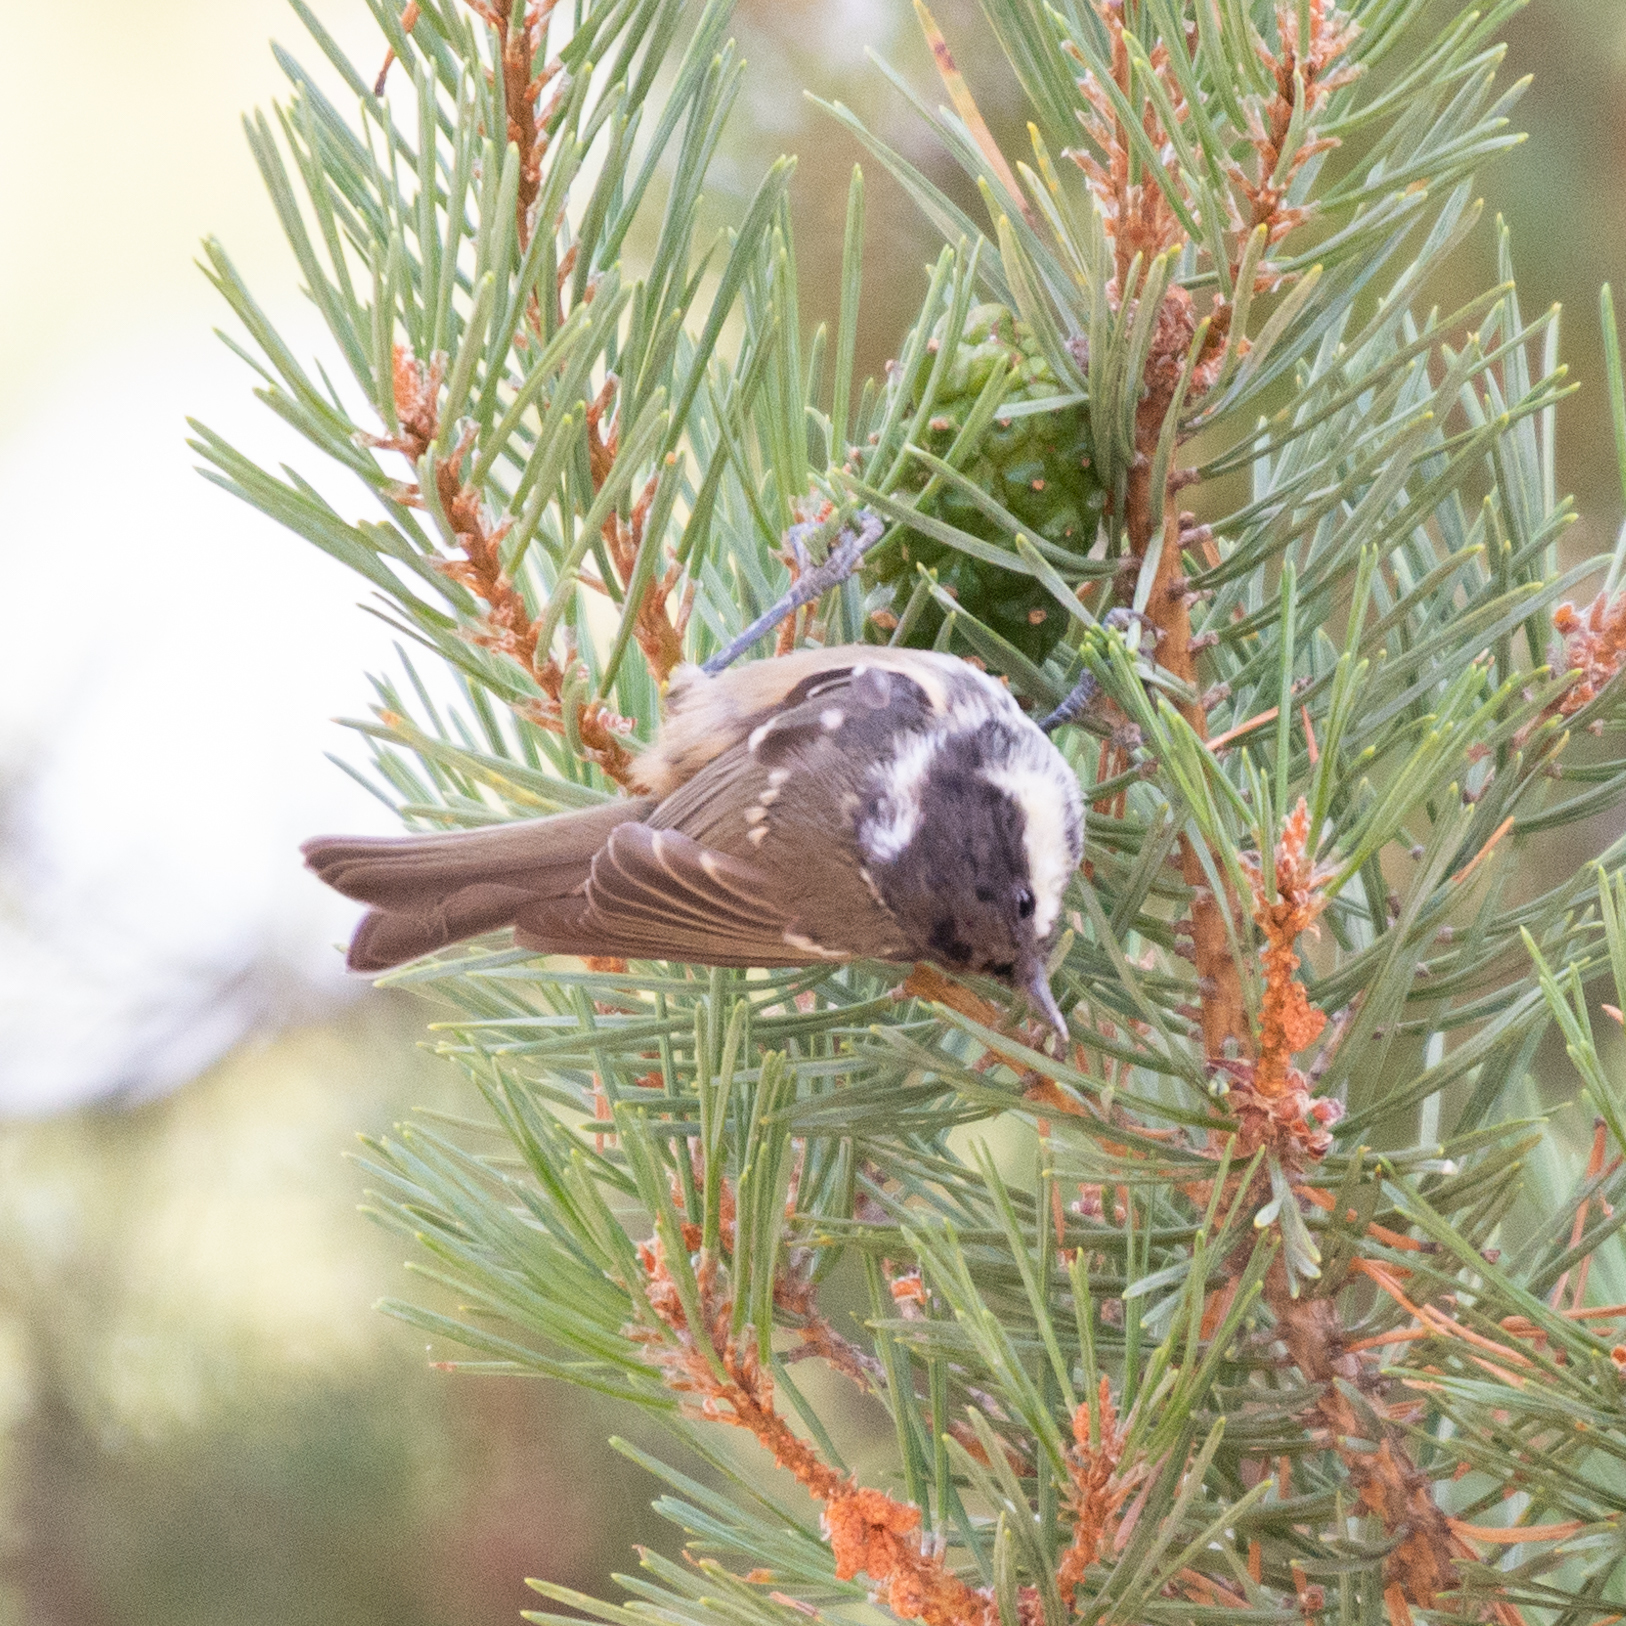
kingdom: Animalia
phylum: Chordata
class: Aves
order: Passeriformes
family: Paridae
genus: Periparus
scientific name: Periparus ater
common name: Coal tit
